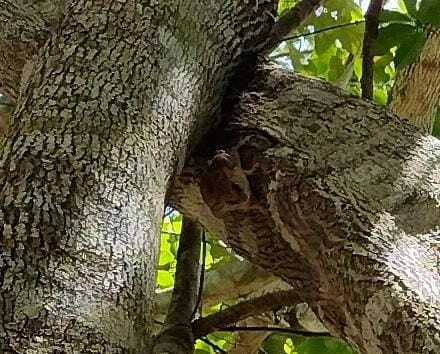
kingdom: Animalia
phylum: Chordata
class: Mammalia
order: Rodentia
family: Cricetidae
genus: Otonyctomys
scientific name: Otonyctomys hatti
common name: Hatt's vesper rat
